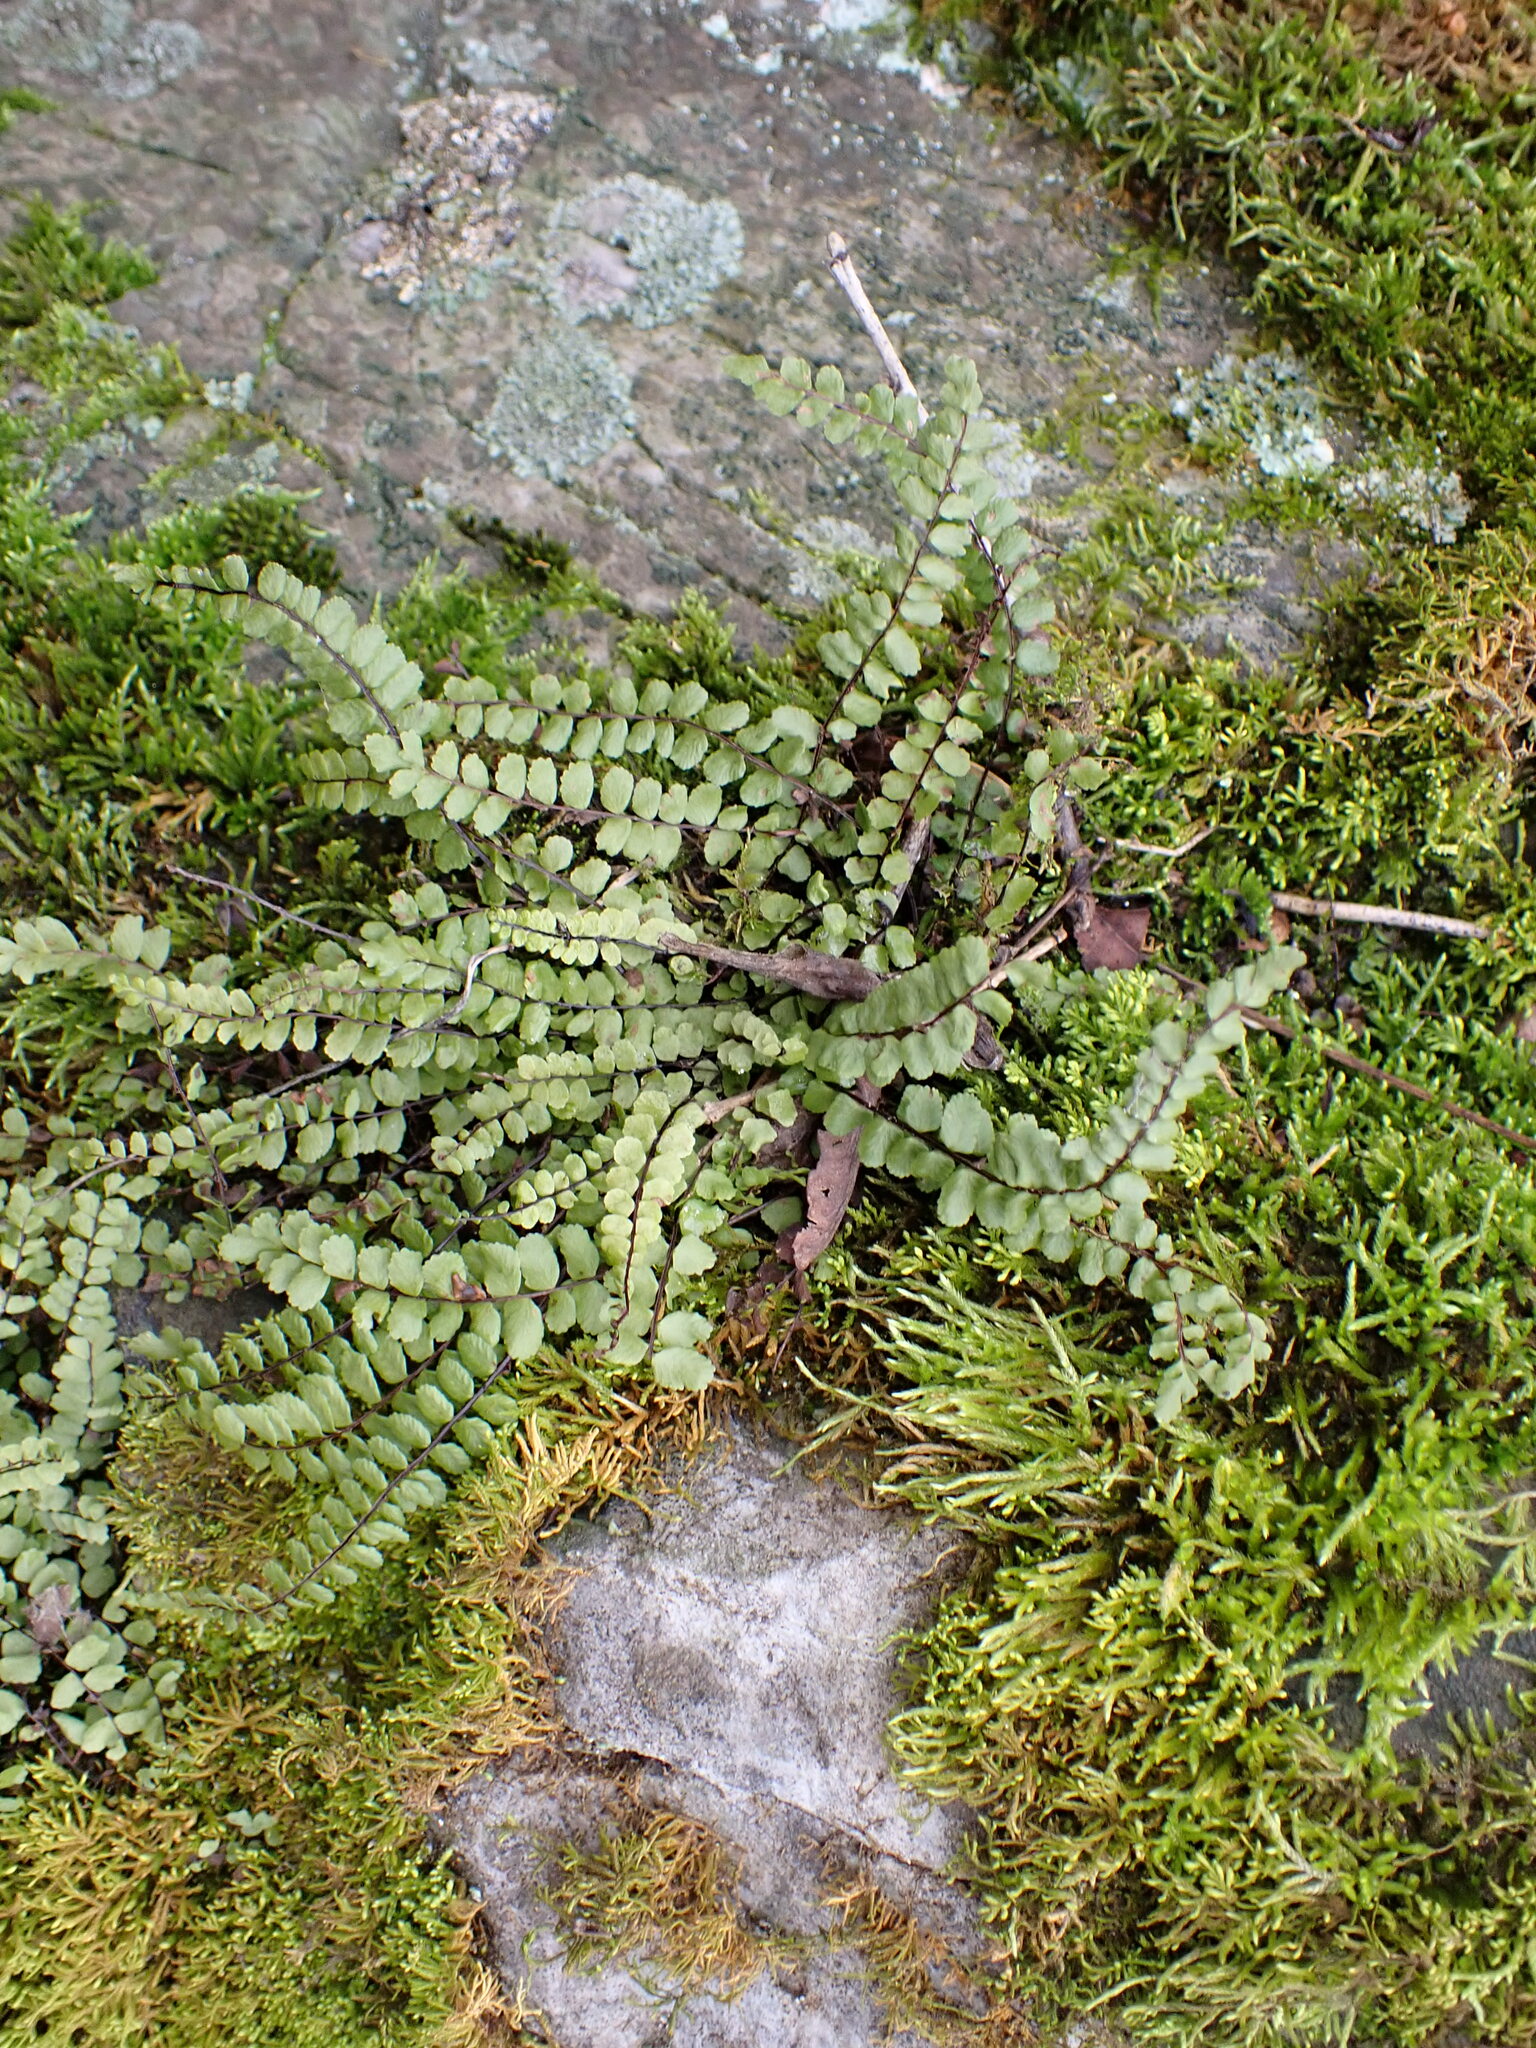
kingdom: Plantae
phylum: Tracheophyta
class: Polypodiopsida
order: Polypodiales
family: Aspleniaceae
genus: Asplenium
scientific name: Asplenium trichomanes
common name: Maidenhair spleenwort
